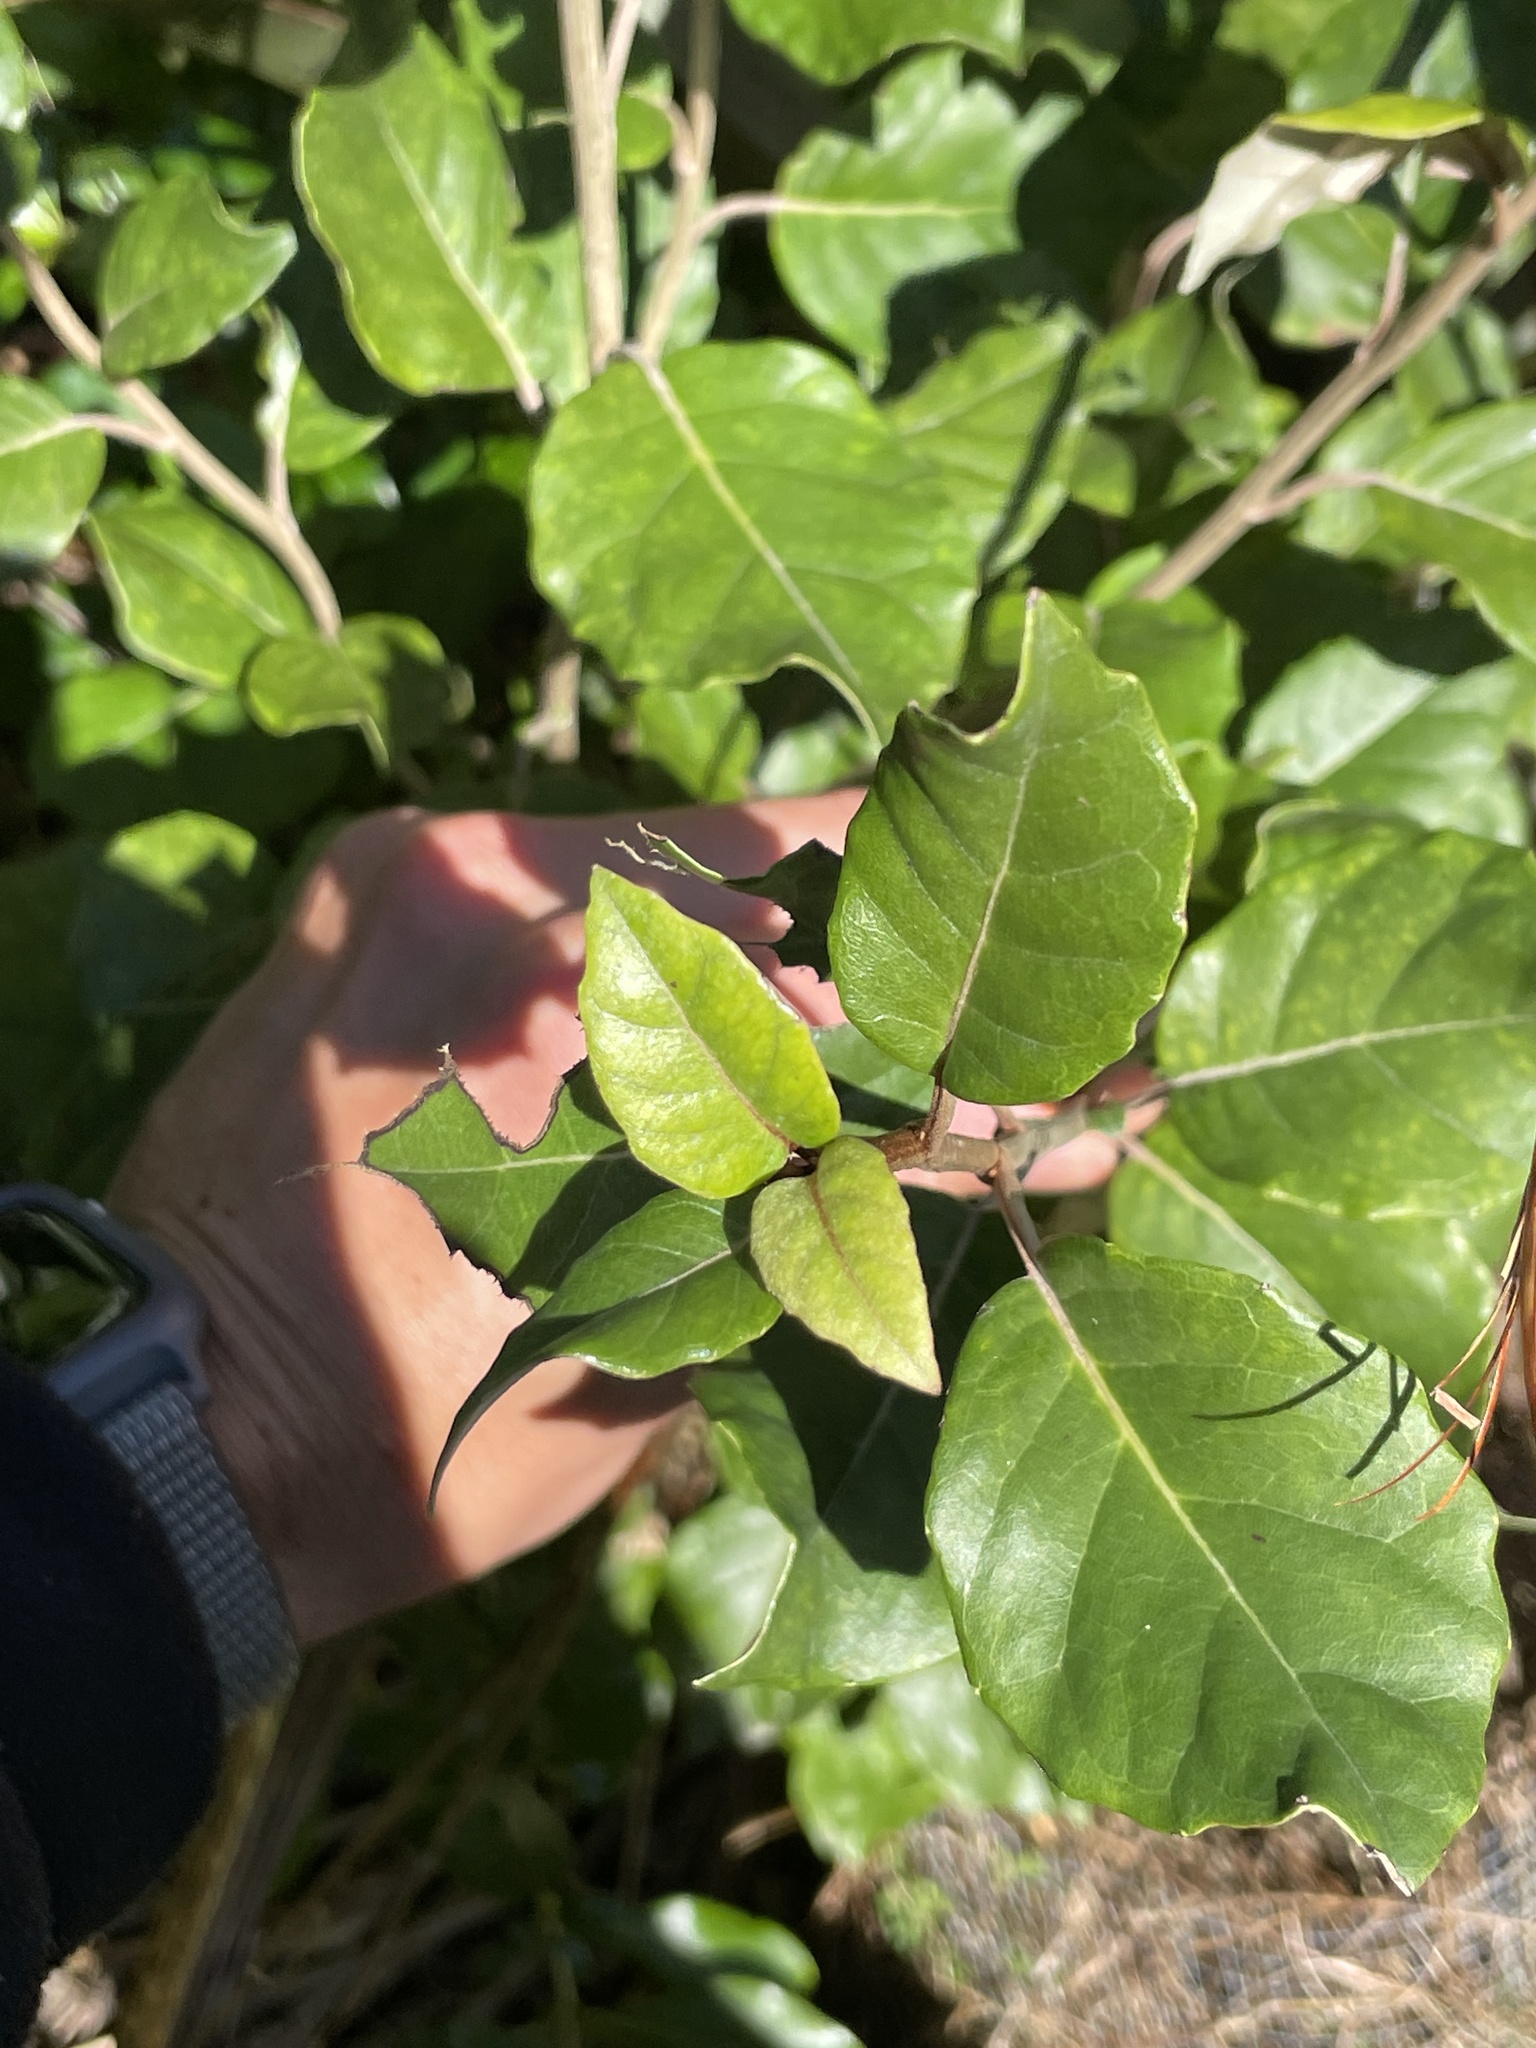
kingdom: Plantae
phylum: Tracheophyta
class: Magnoliopsida
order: Asterales
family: Asteraceae
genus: Olearia
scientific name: Olearia arborescens
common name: Glossy tree daisy
